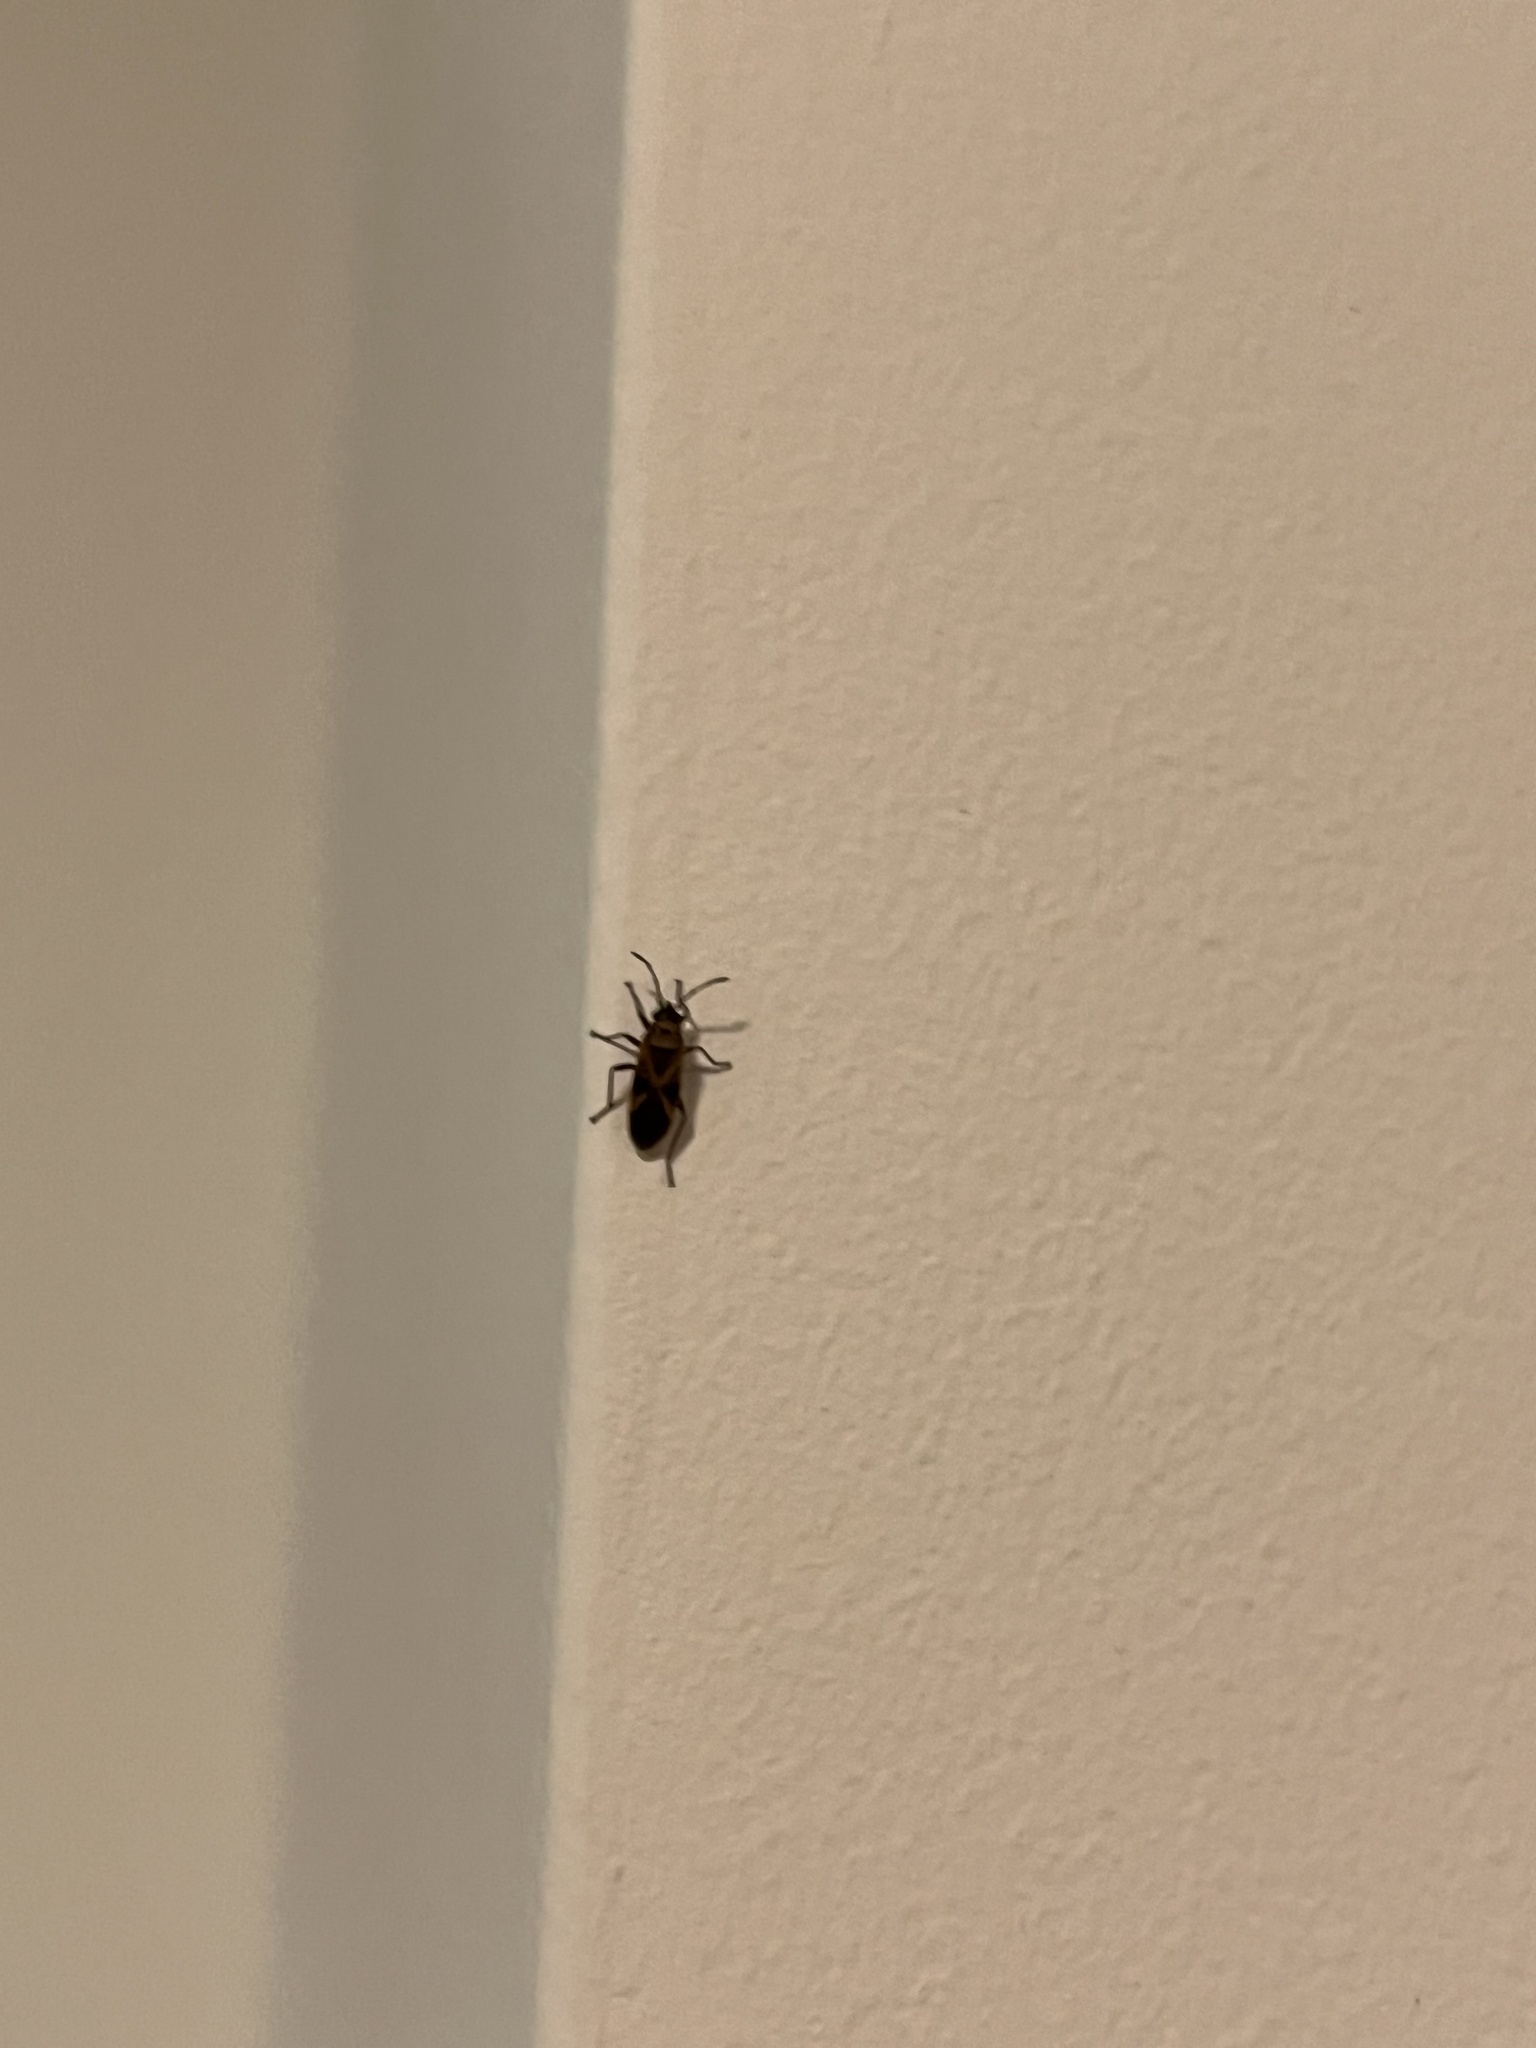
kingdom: Animalia
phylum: Arthropoda
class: Insecta
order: Hemiptera
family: Lygaeidae
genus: Arocatus
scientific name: Arocatus longiceps
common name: Plane tree bug
